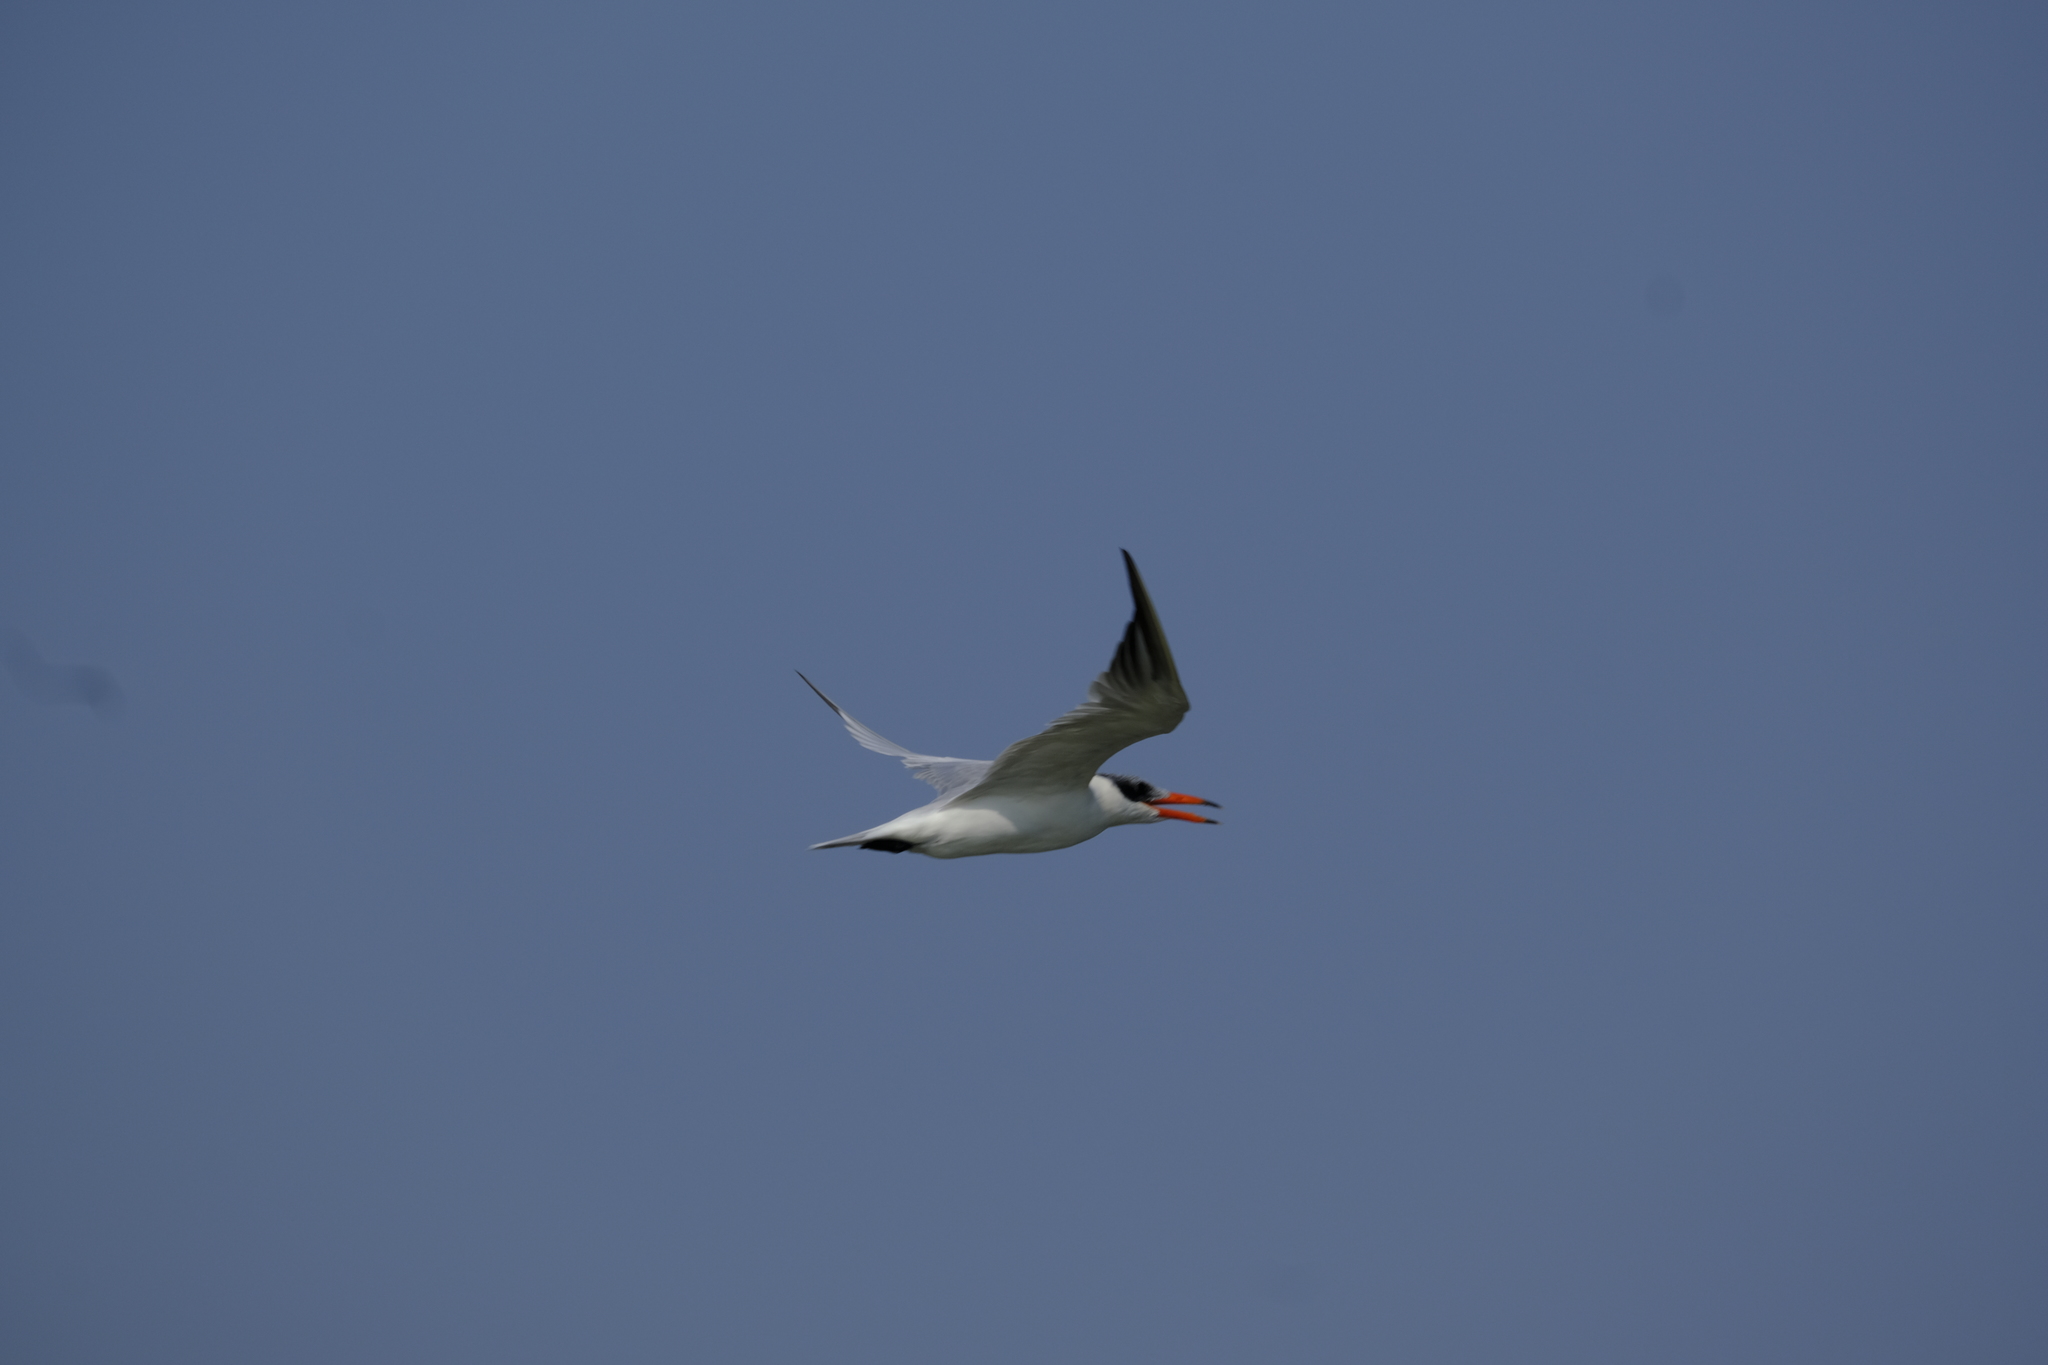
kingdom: Animalia
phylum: Chordata
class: Aves
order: Charadriiformes
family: Laridae
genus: Hydroprogne
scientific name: Hydroprogne caspia
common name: Caspian tern
